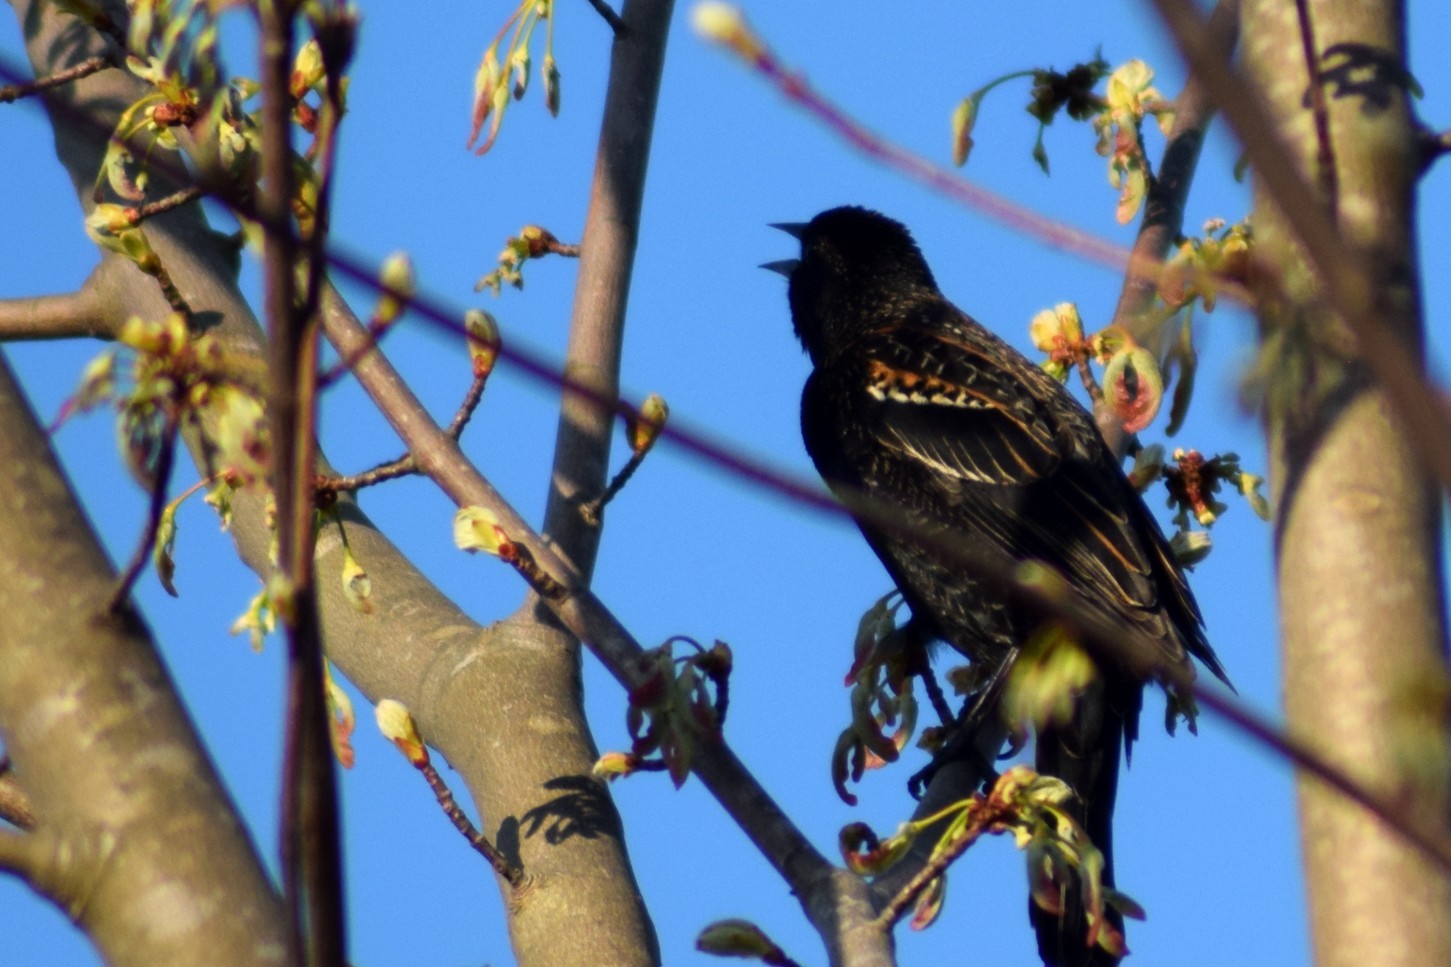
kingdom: Animalia
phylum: Chordata
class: Aves
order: Passeriformes
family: Icteridae
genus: Agelaius
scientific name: Agelaius phoeniceus
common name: Red-winged blackbird
